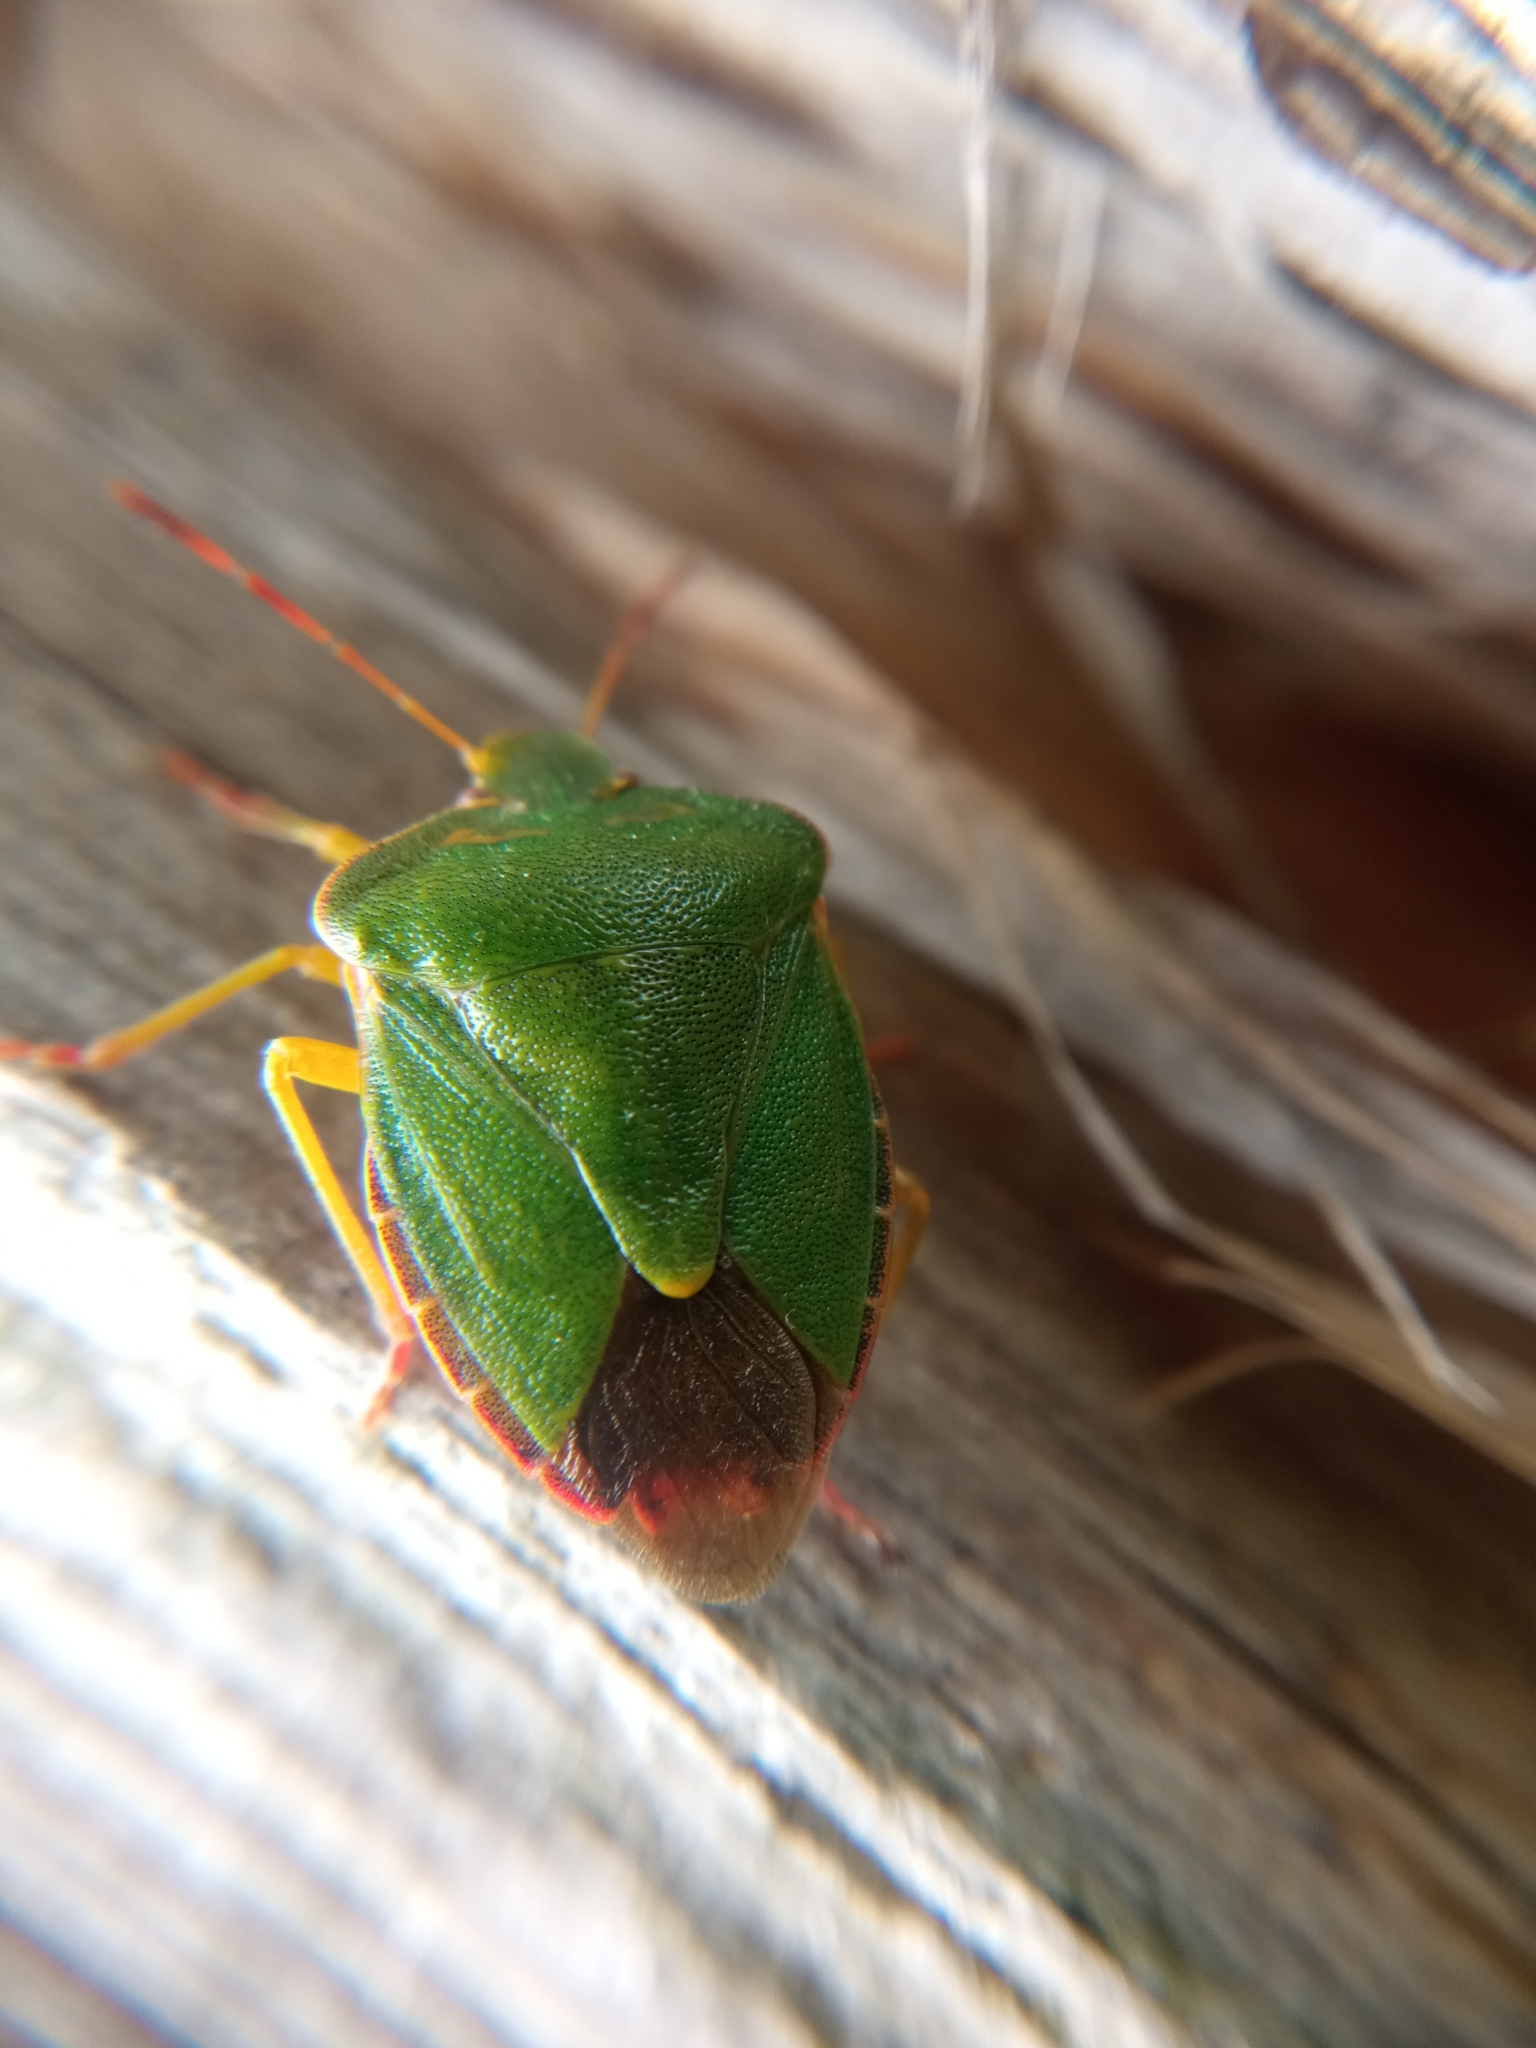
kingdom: Animalia
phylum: Arthropoda
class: Insecta
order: Hemiptera
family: Pentatomidae
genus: Palomena
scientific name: Palomena prasina
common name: Green shieldbug
